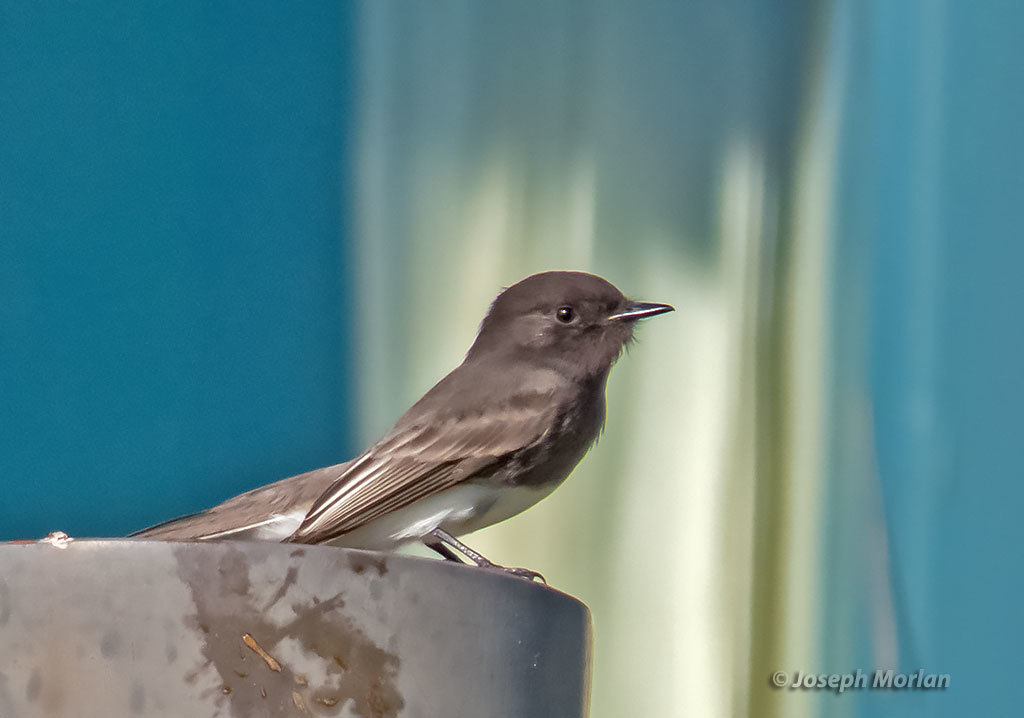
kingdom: Animalia
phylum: Chordata
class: Aves
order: Passeriformes
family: Tyrannidae
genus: Sayornis
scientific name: Sayornis nigricans
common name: Black phoebe
